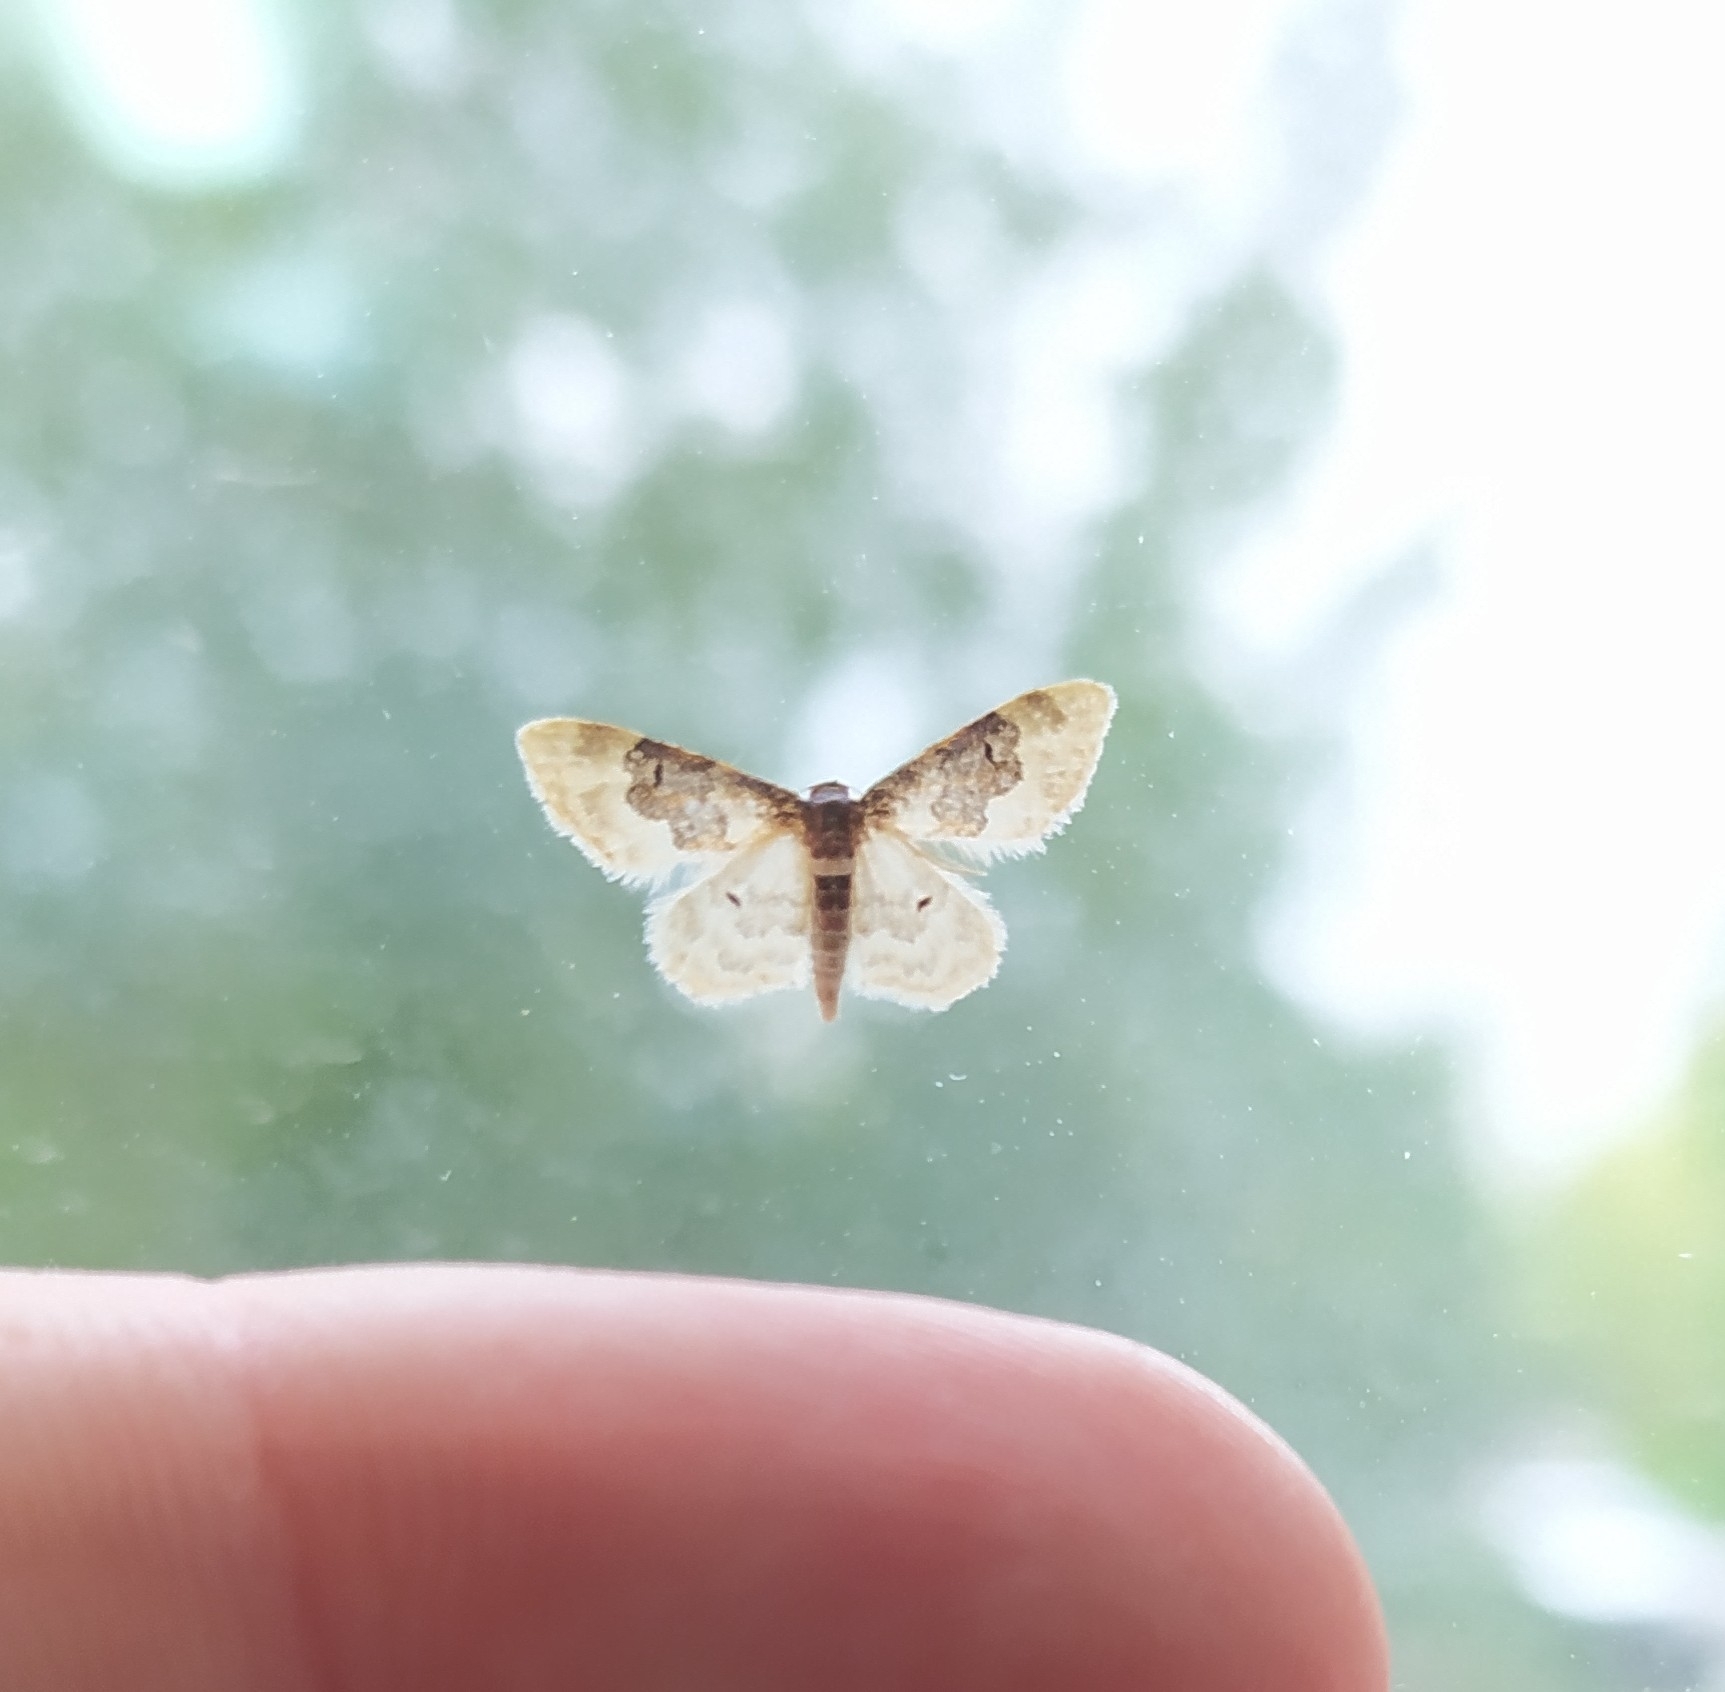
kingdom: Animalia
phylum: Arthropoda
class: Insecta
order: Lepidoptera
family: Geometridae
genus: Idaea
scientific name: Idaea rusticata
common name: Least carpet
